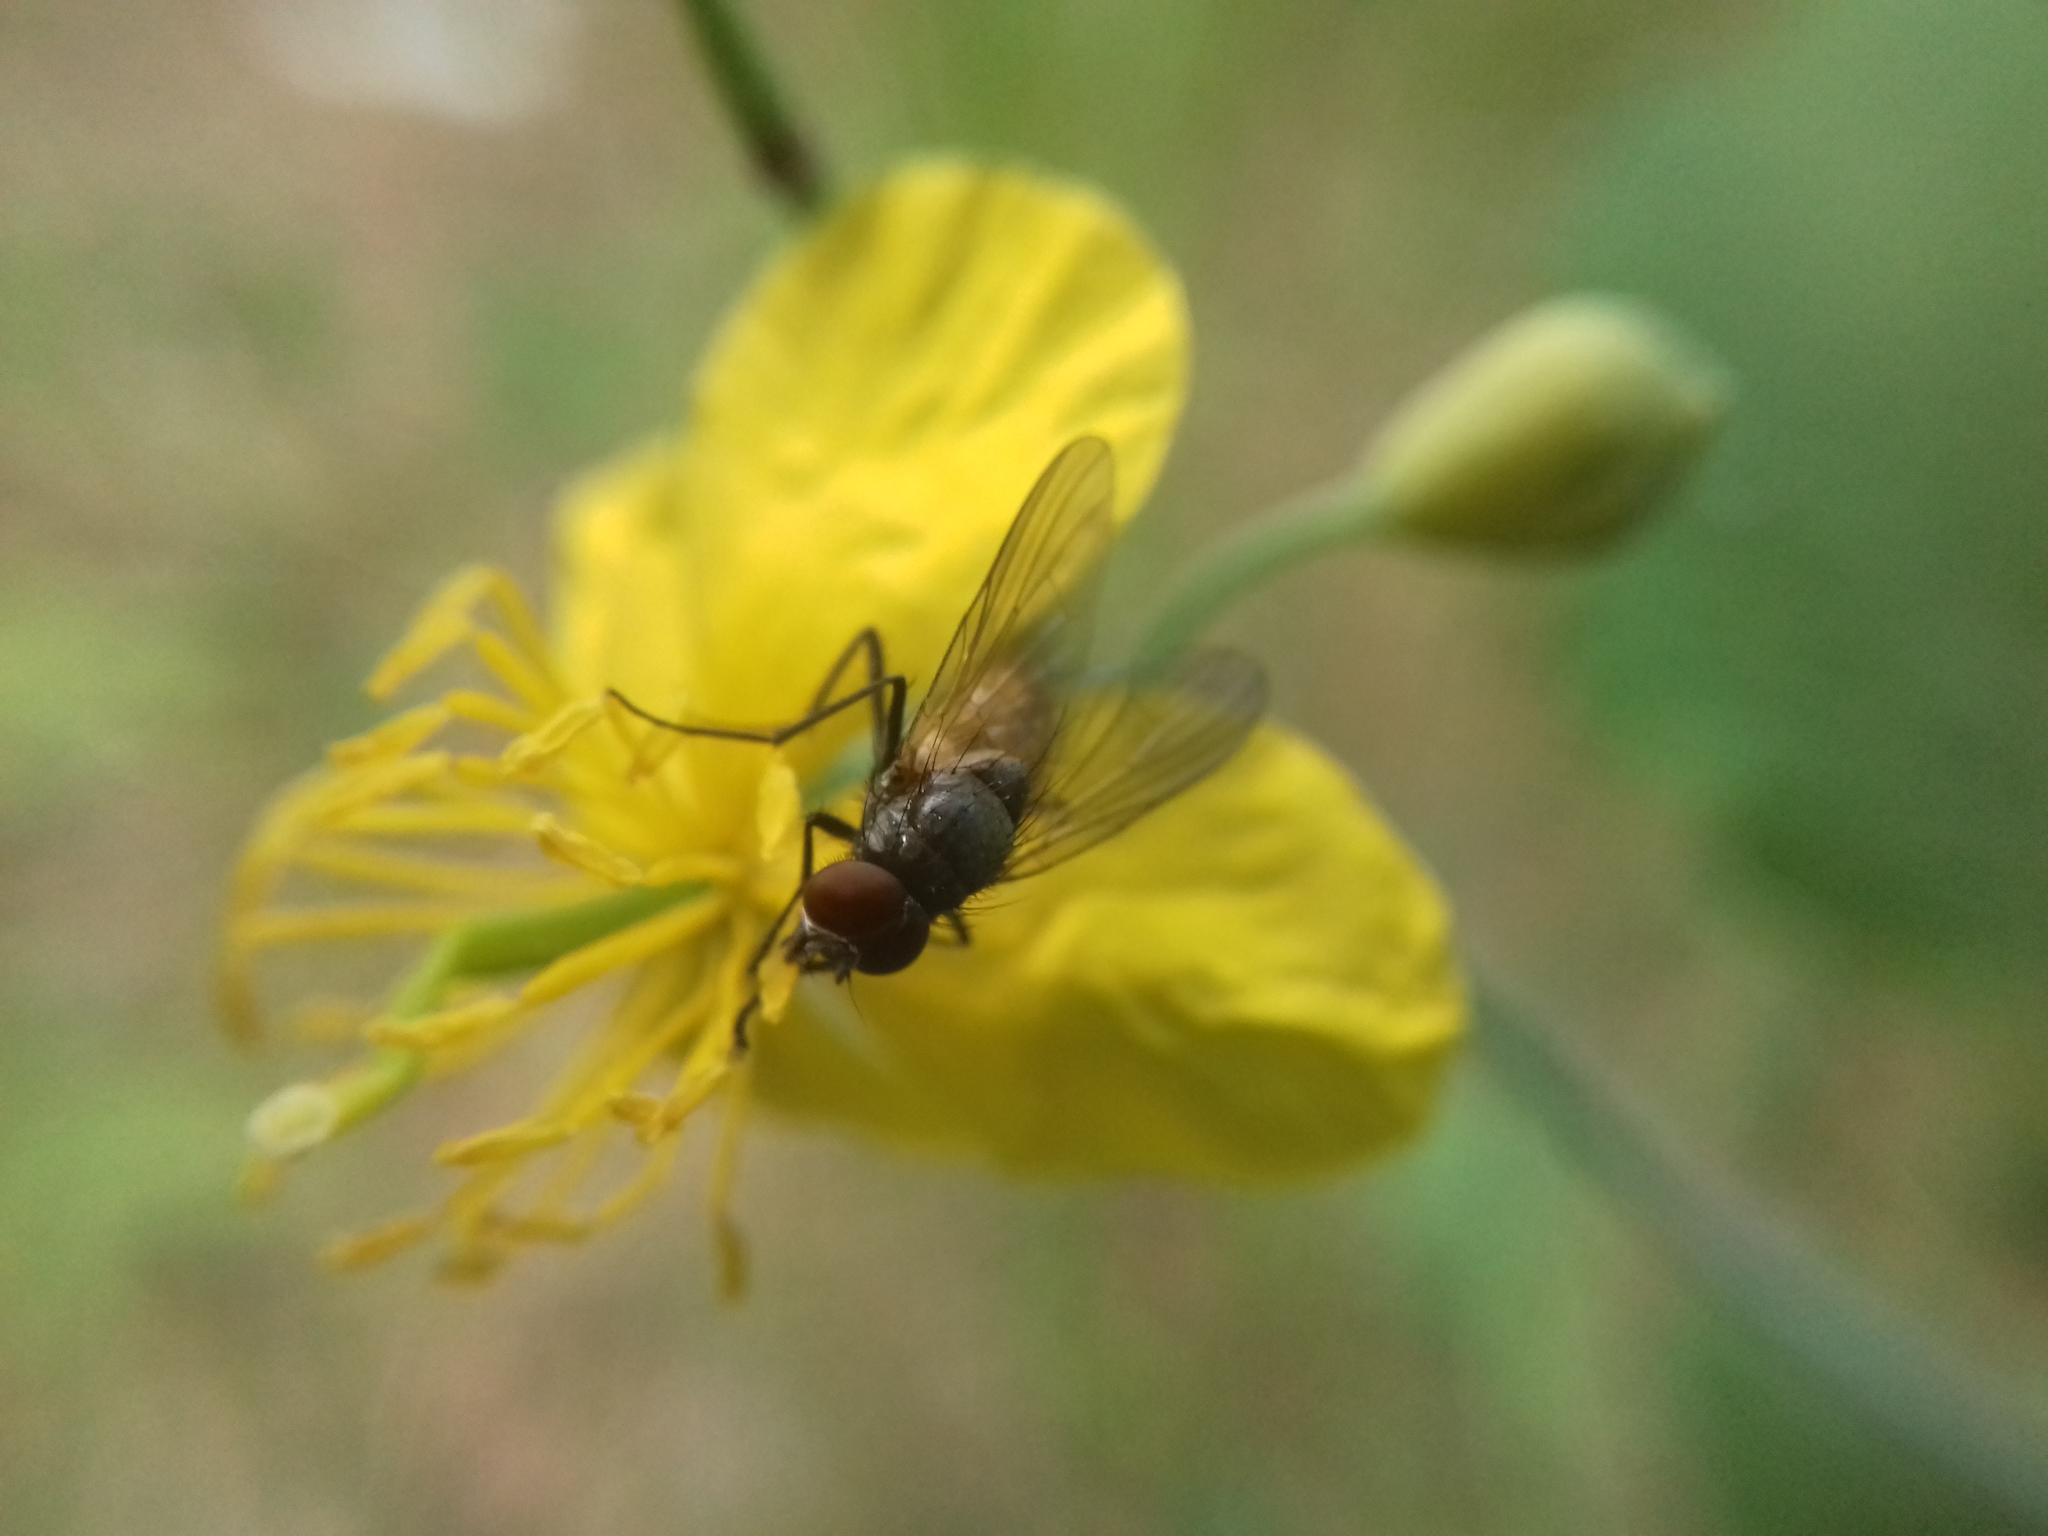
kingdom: Animalia
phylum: Arthropoda
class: Insecta
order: Diptera
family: Muscidae
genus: Thricops
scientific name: Thricops semicinereus
